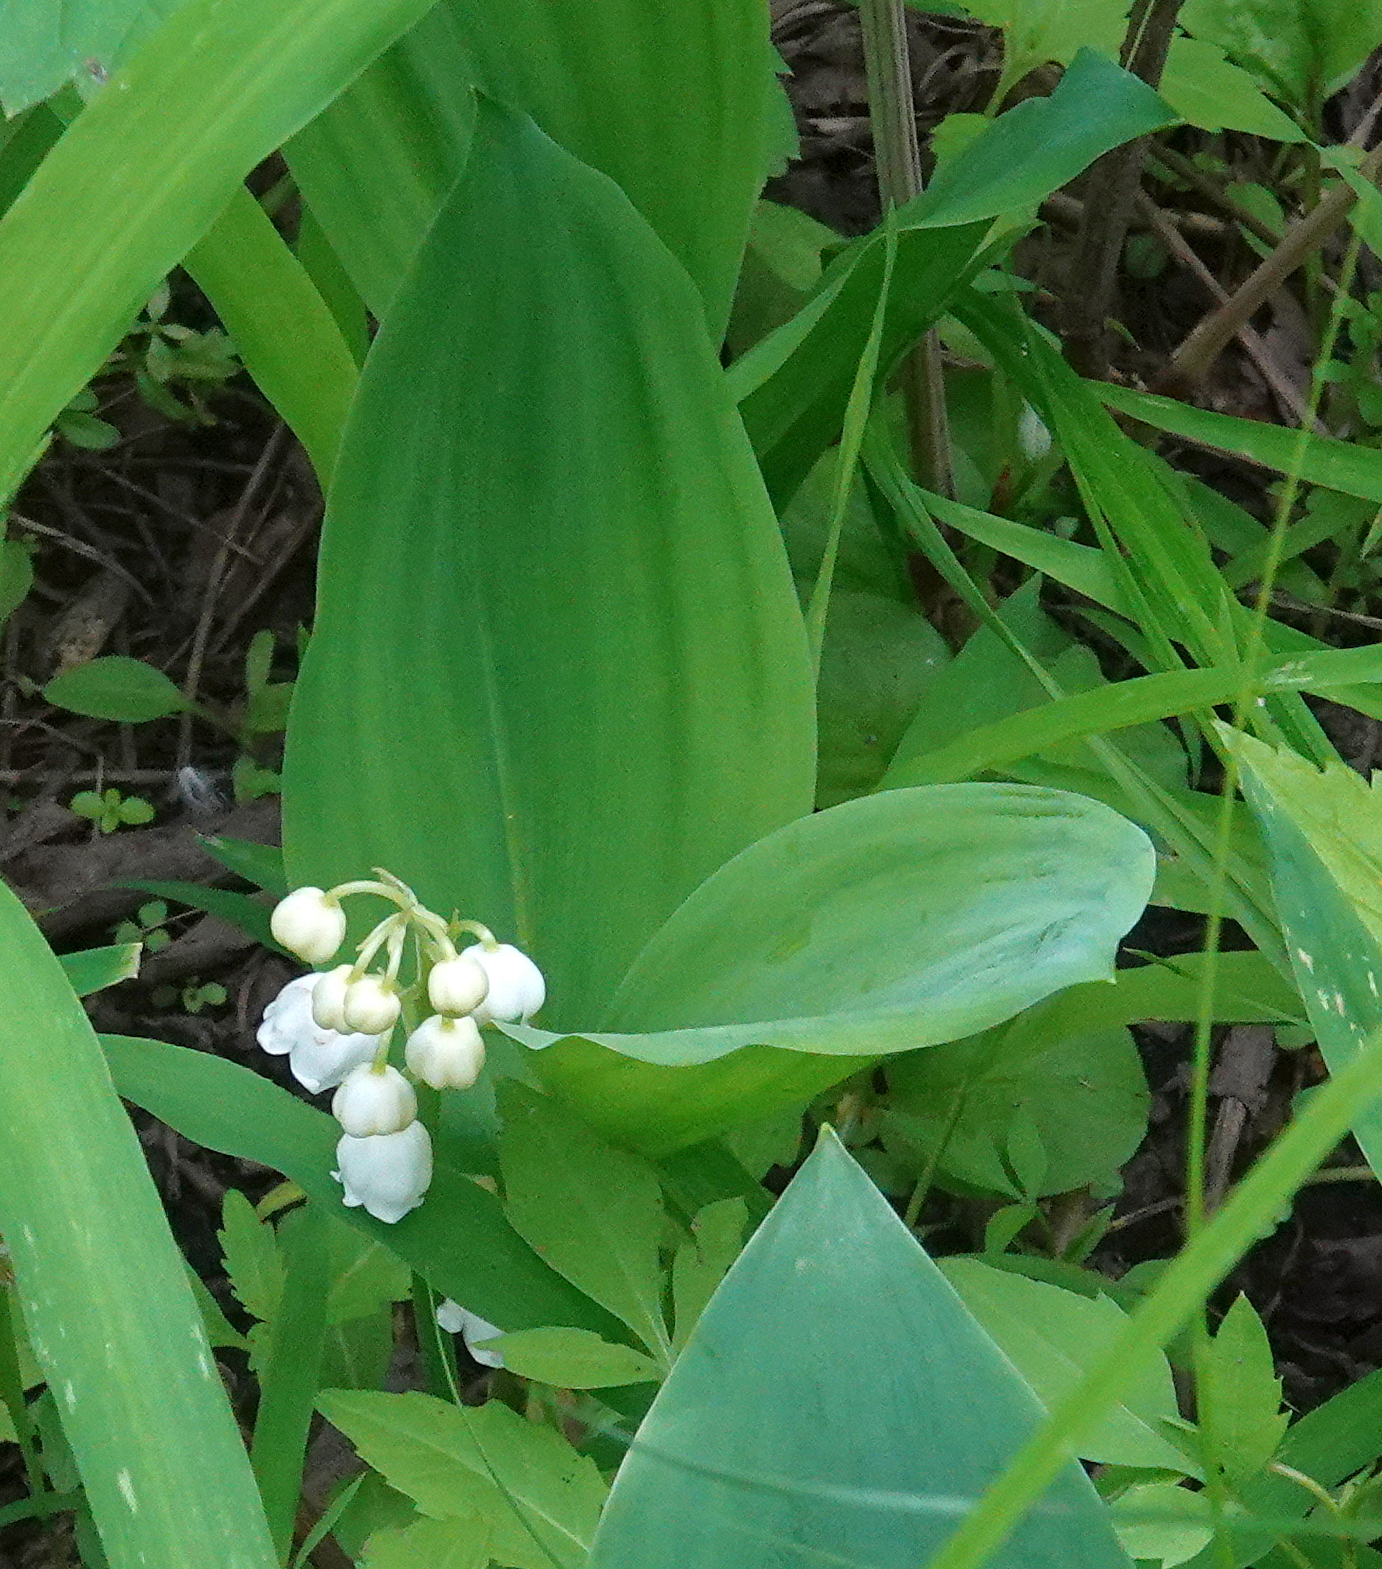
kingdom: Plantae
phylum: Tracheophyta
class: Liliopsida
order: Asparagales
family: Asparagaceae
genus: Convallaria
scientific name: Convallaria majalis
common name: Lily-of-the-valley
